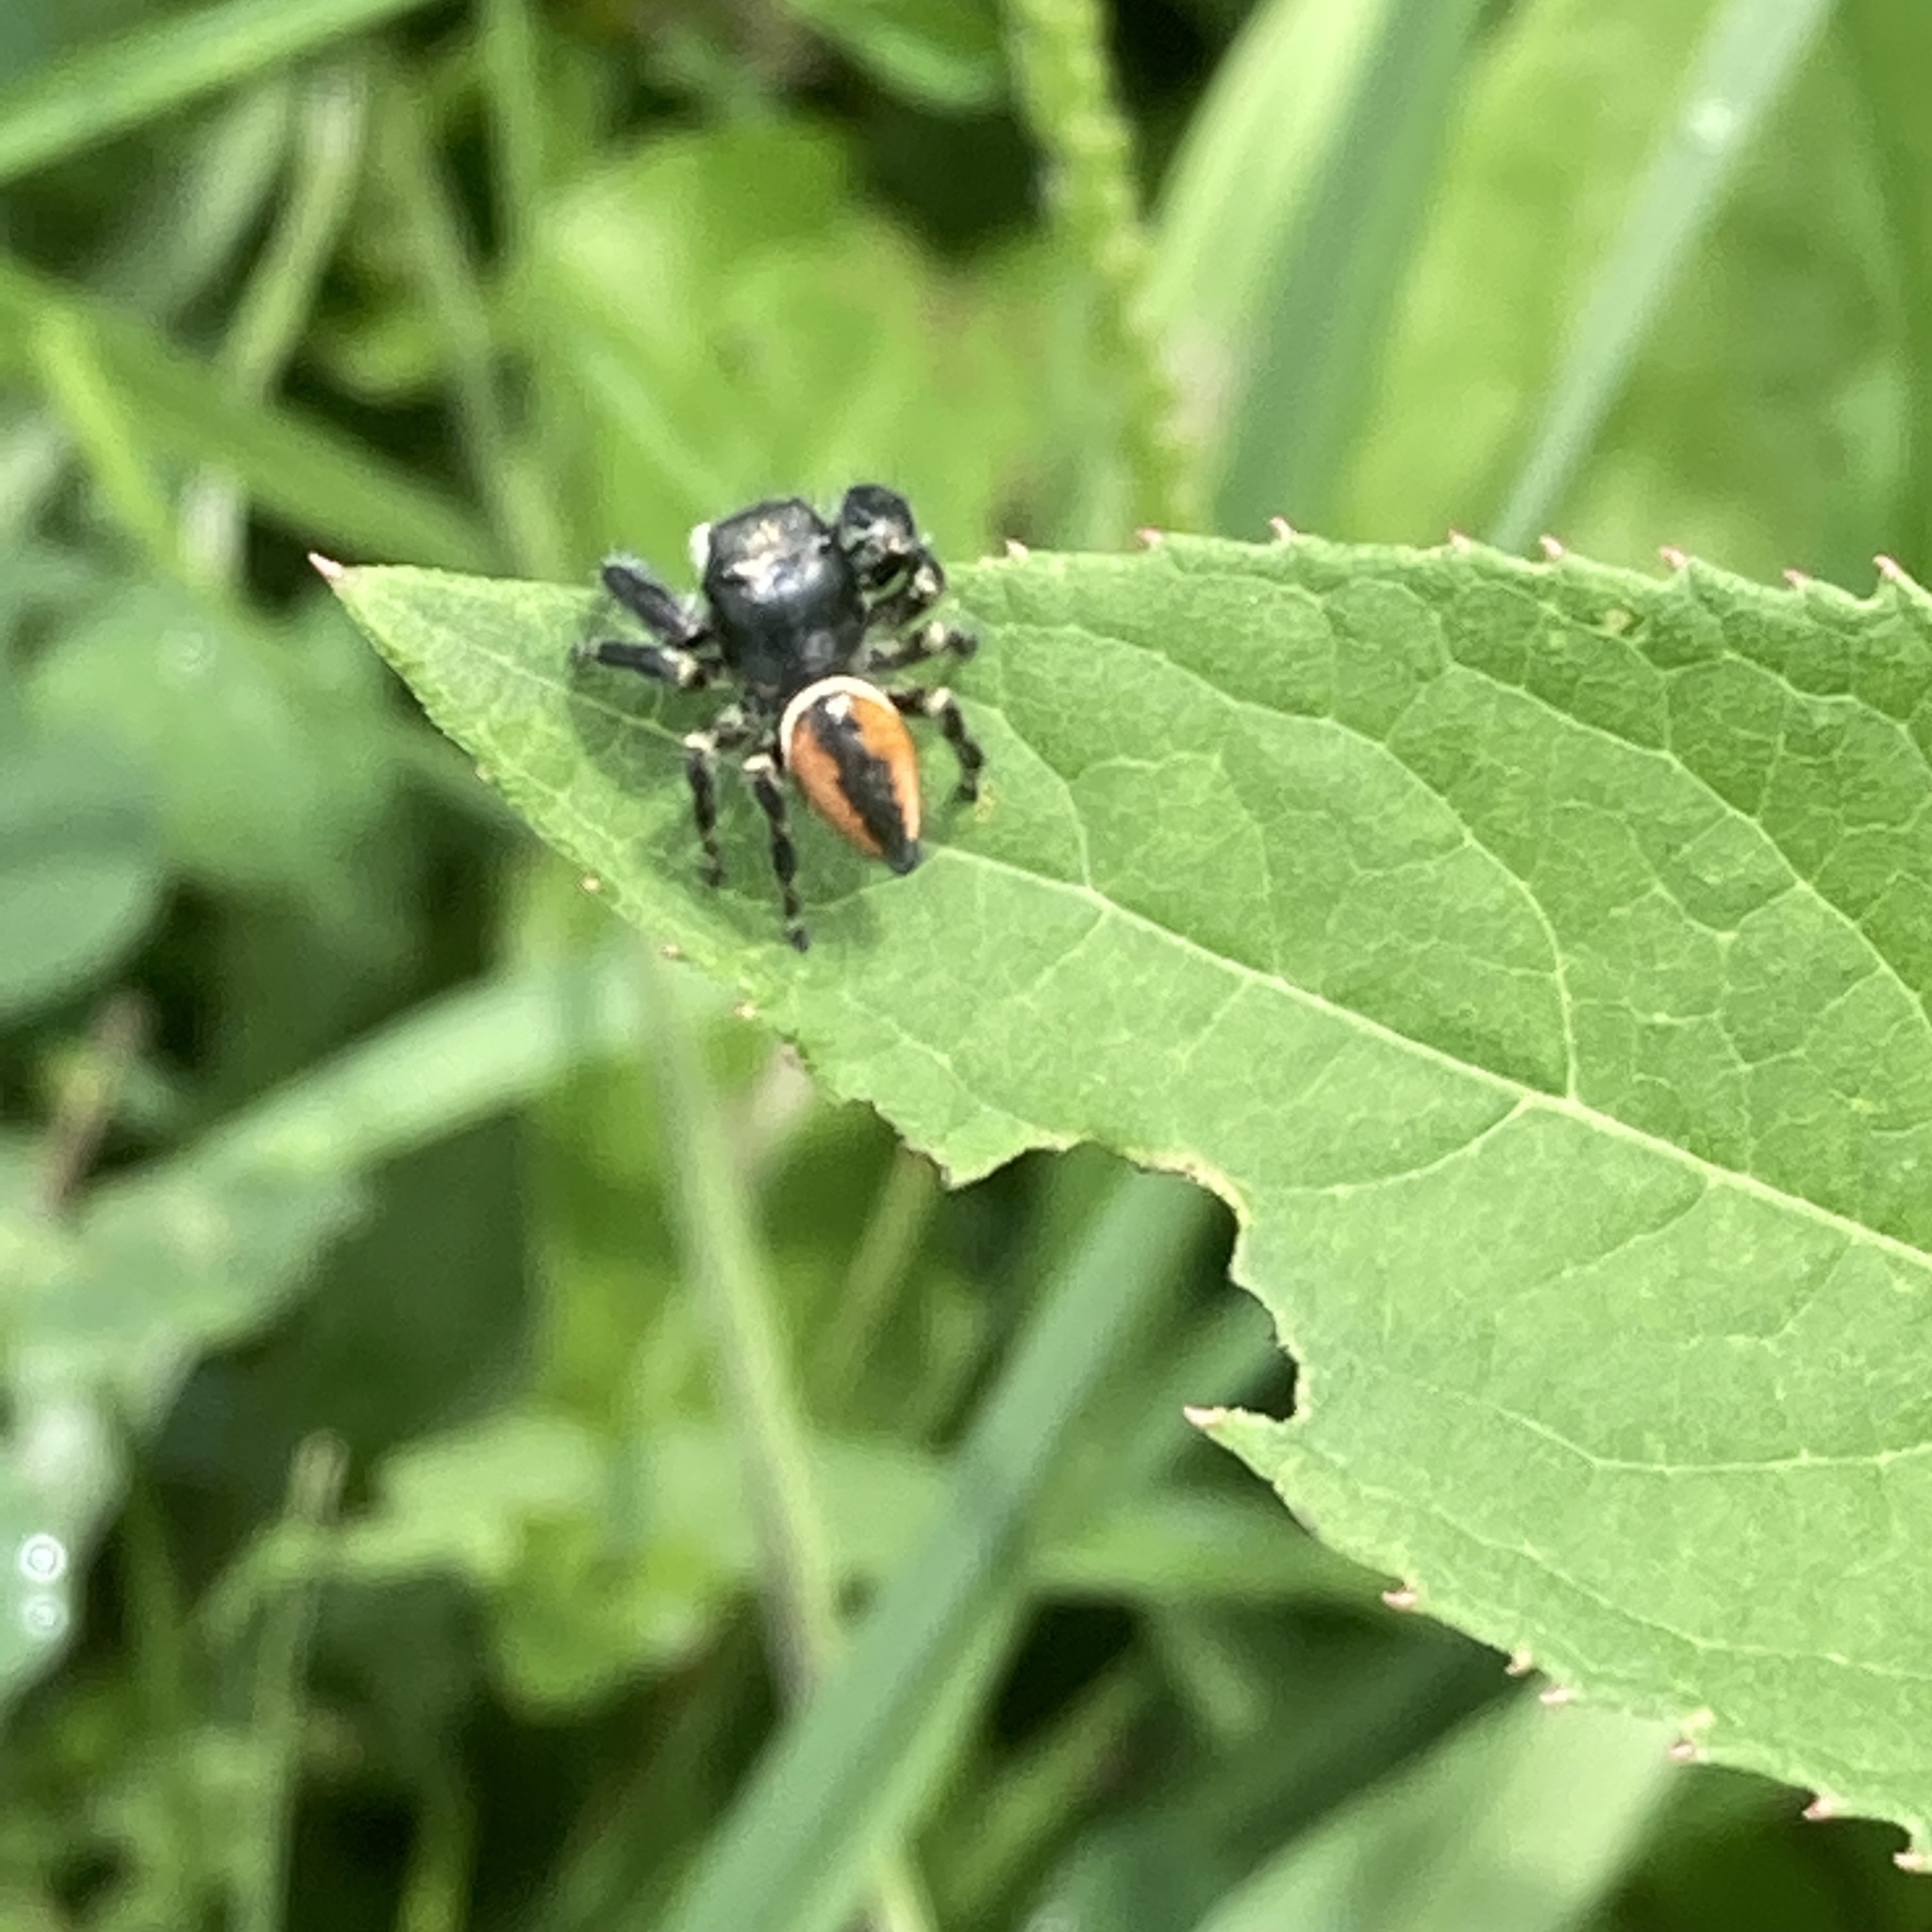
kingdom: Animalia
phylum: Arthropoda
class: Arachnida
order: Araneae
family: Salticidae
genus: Phidippus
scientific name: Phidippus clarus
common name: Brilliant jumping spider
